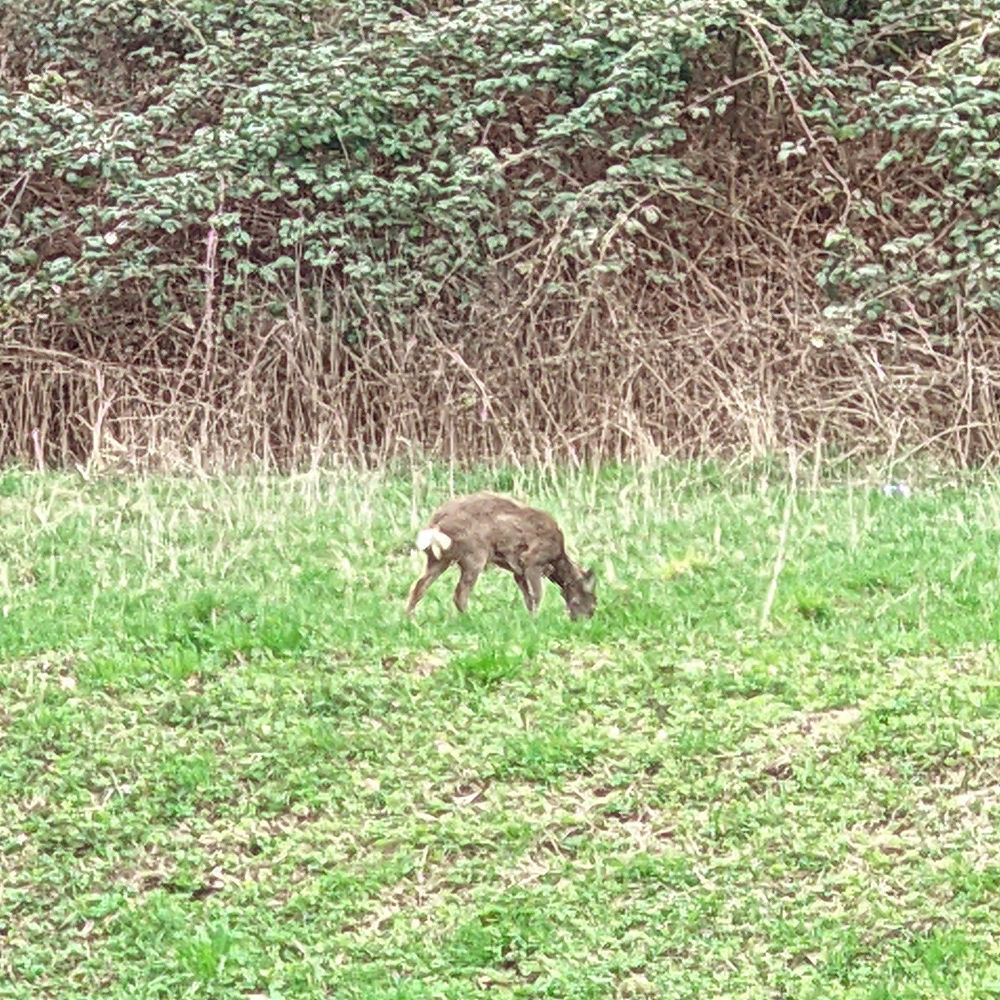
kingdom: Animalia
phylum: Chordata
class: Mammalia
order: Artiodactyla
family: Cervidae
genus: Capreolus
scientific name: Capreolus capreolus
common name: Western roe deer
